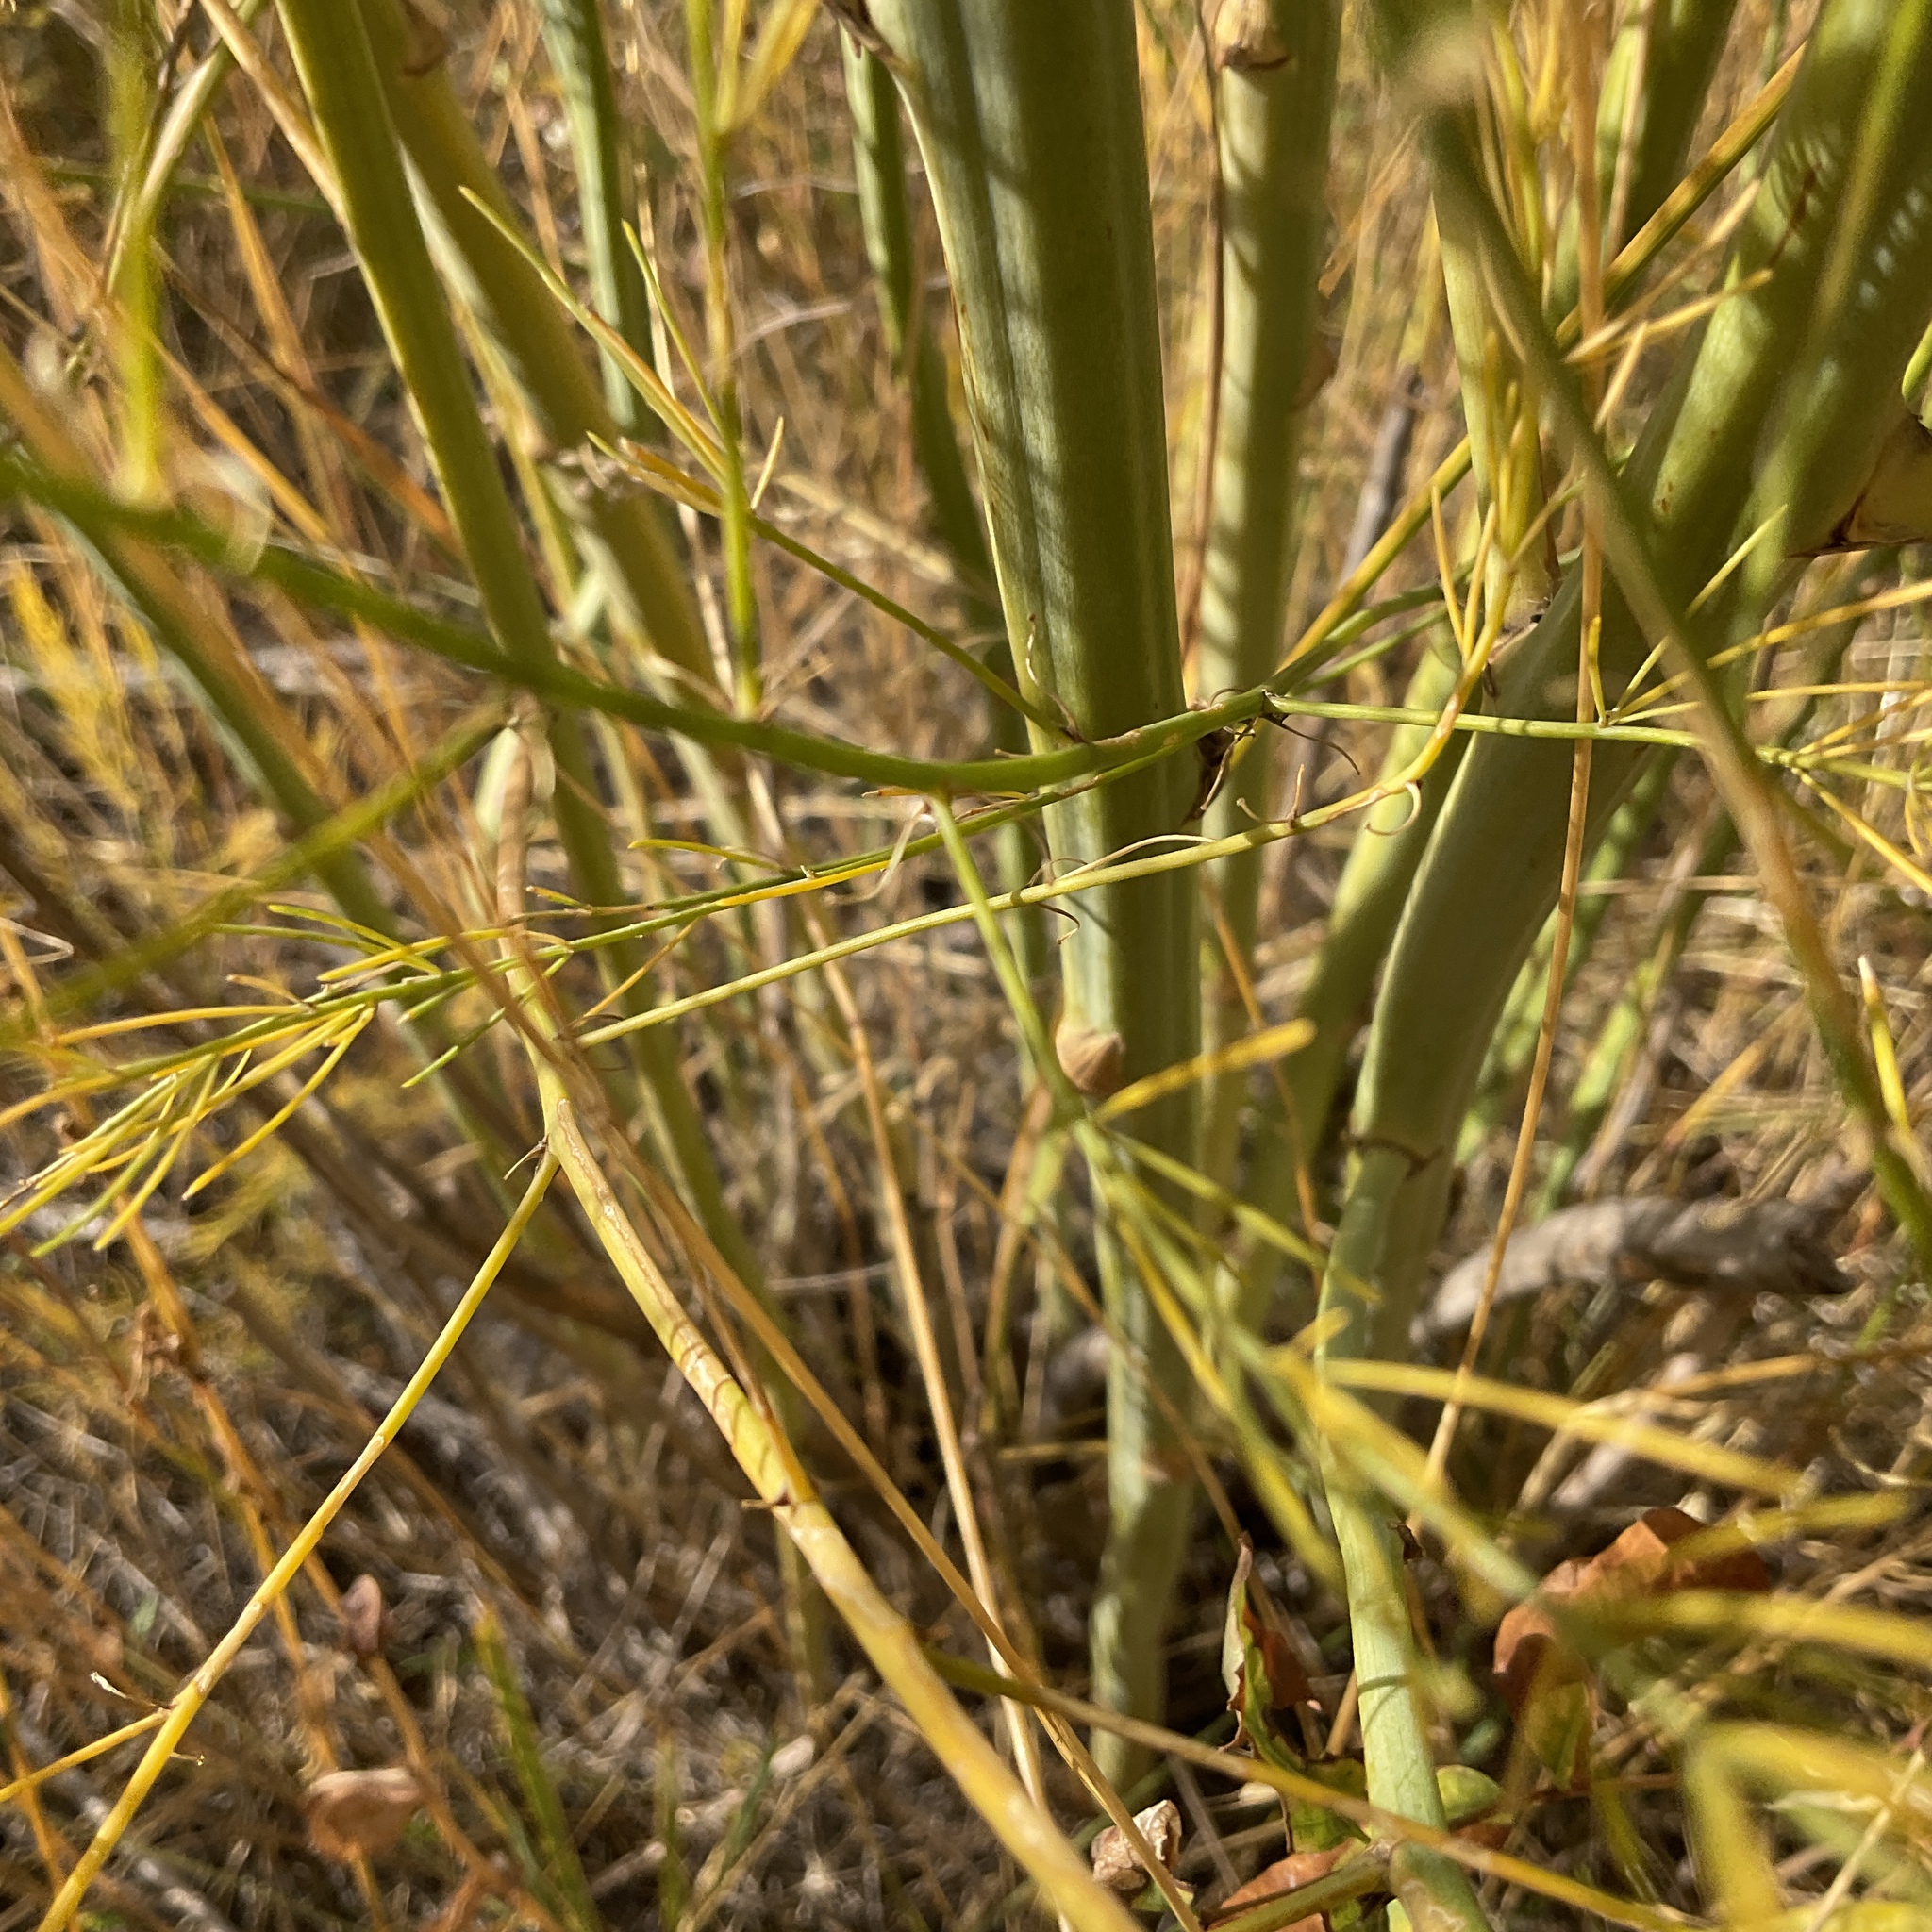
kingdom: Plantae
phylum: Tracheophyta
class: Liliopsida
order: Asparagales
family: Asparagaceae
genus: Asparagus
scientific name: Asparagus officinalis
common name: Garden asparagus
